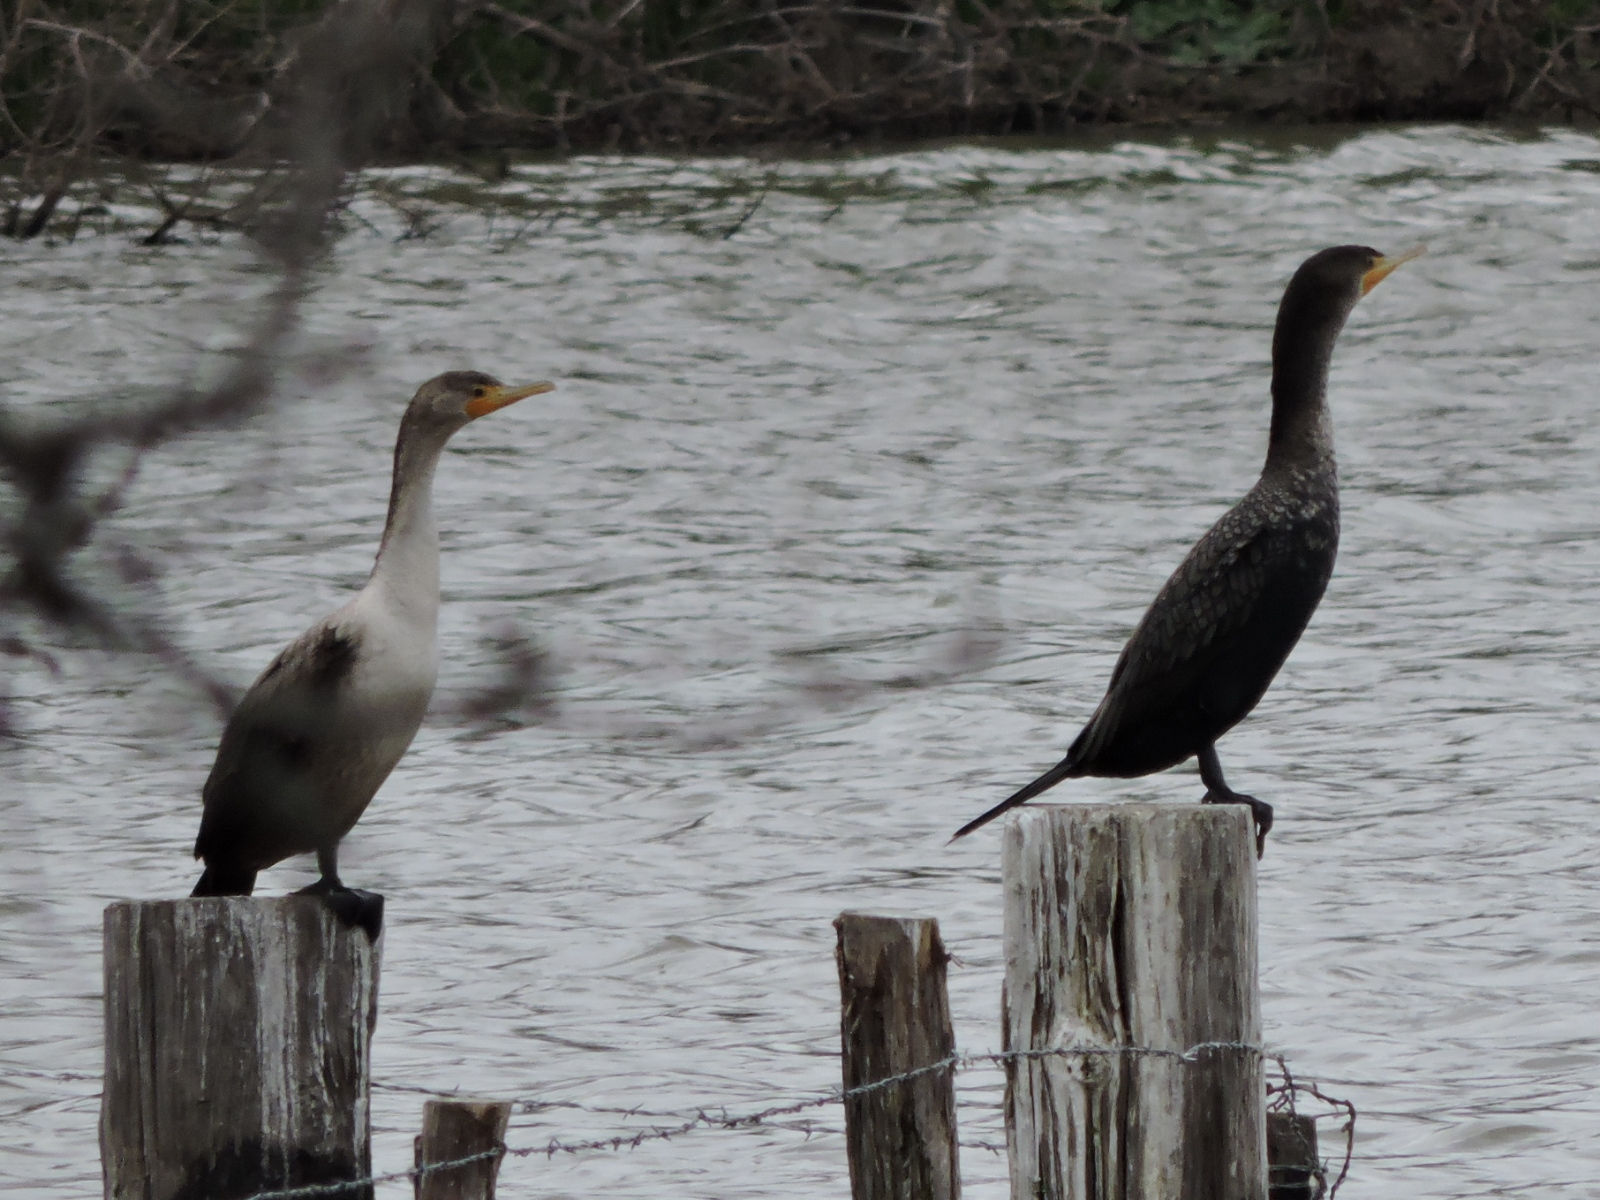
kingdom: Animalia
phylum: Chordata
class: Aves
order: Suliformes
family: Phalacrocoracidae
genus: Phalacrocorax
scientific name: Phalacrocorax auritus
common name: Double-crested cormorant
